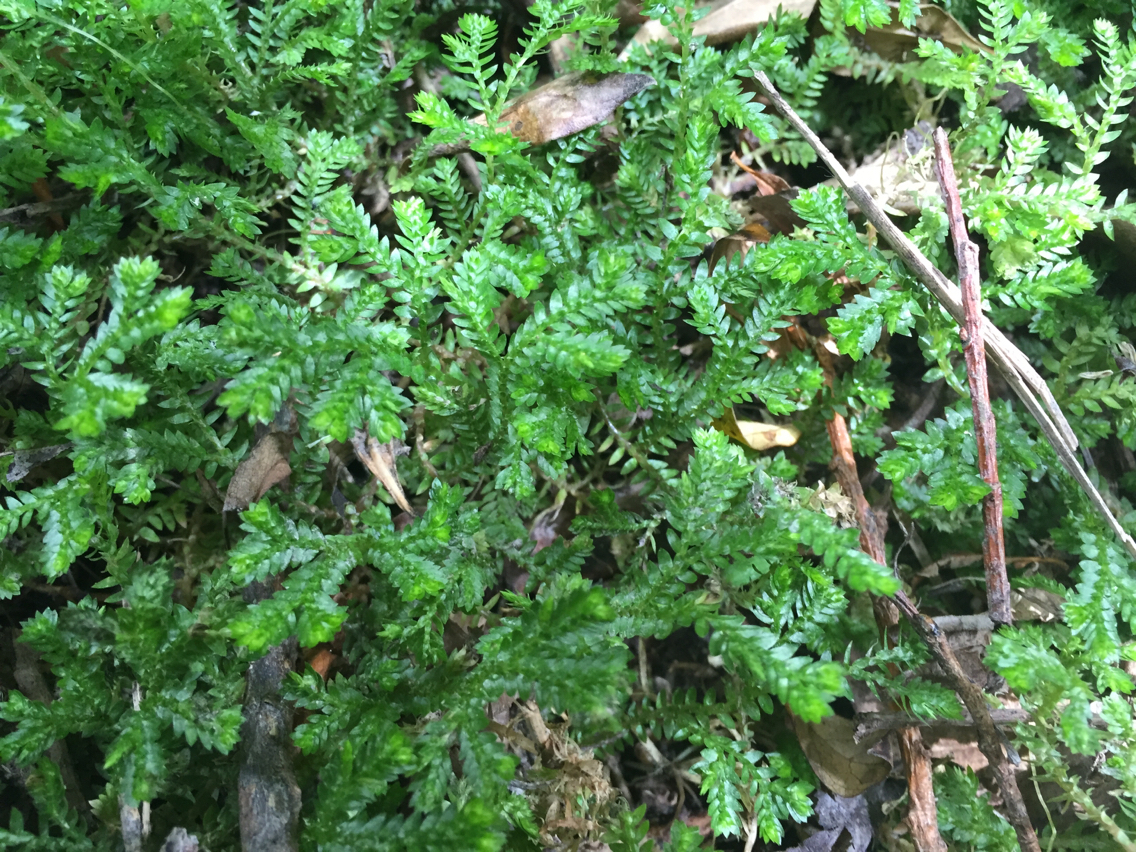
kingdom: Plantae
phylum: Tracheophyta
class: Lycopodiopsida
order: Selaginellales
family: Selaginellaceae
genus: Selaginella
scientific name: Selaginella kraussiana
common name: Krauss' spikemoss
